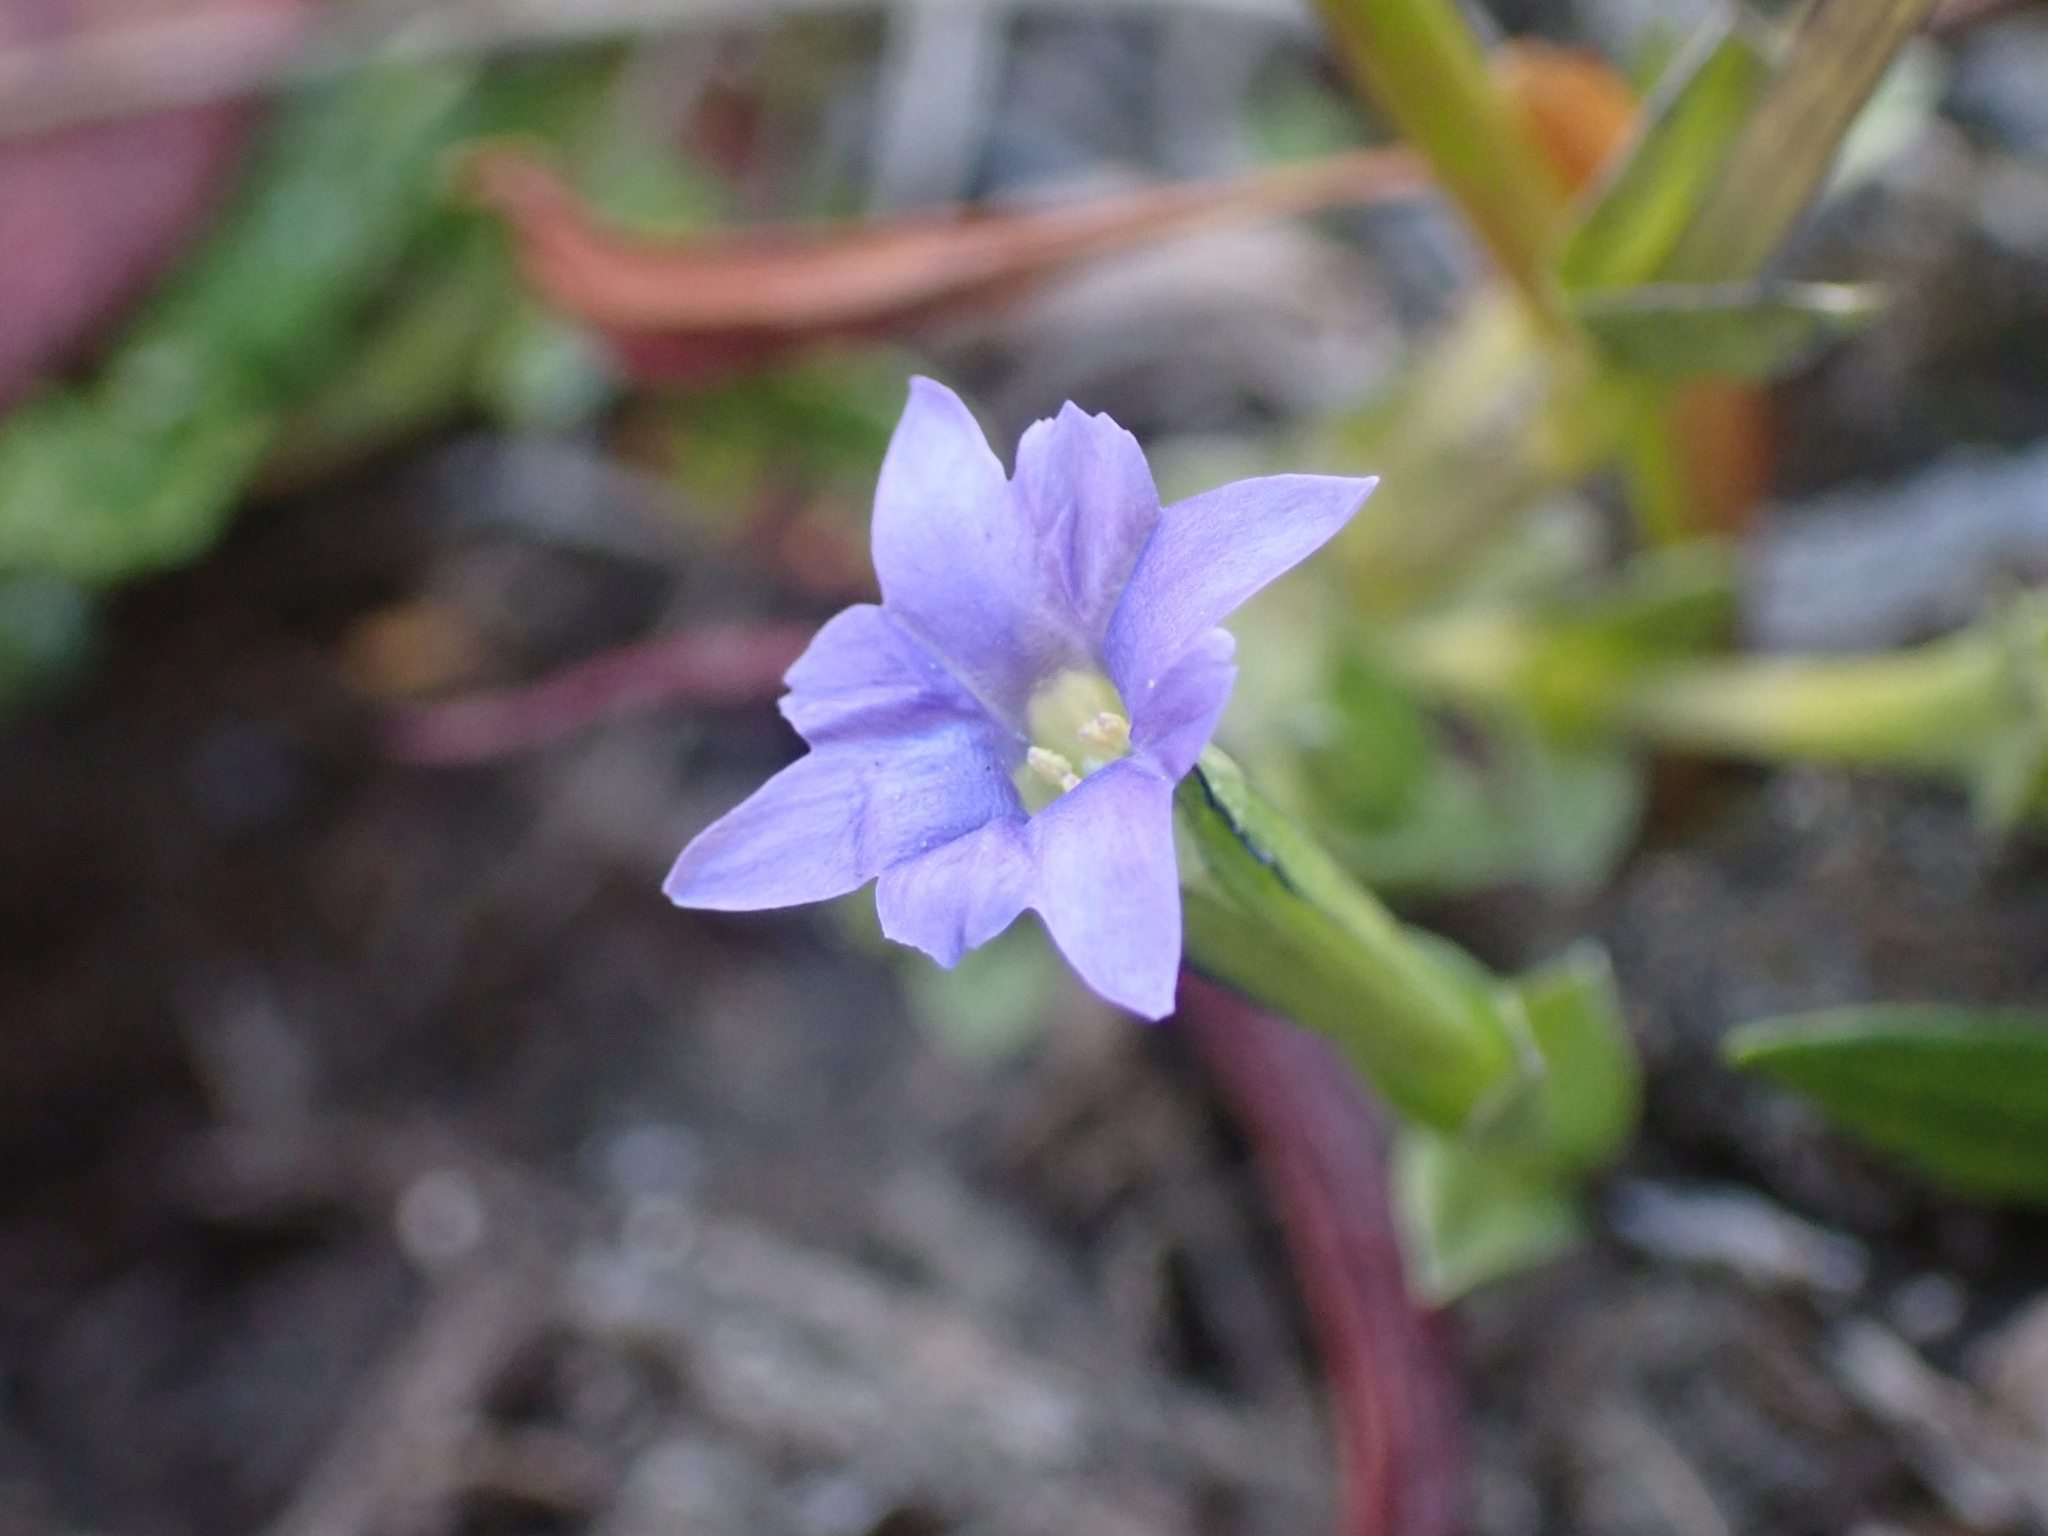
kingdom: Plantae
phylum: Tracheophyta
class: Magnoliopsida
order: Gentianales
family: Gentianaceae
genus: Gentiana
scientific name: Gentiana prostrata
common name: Moss gentian
